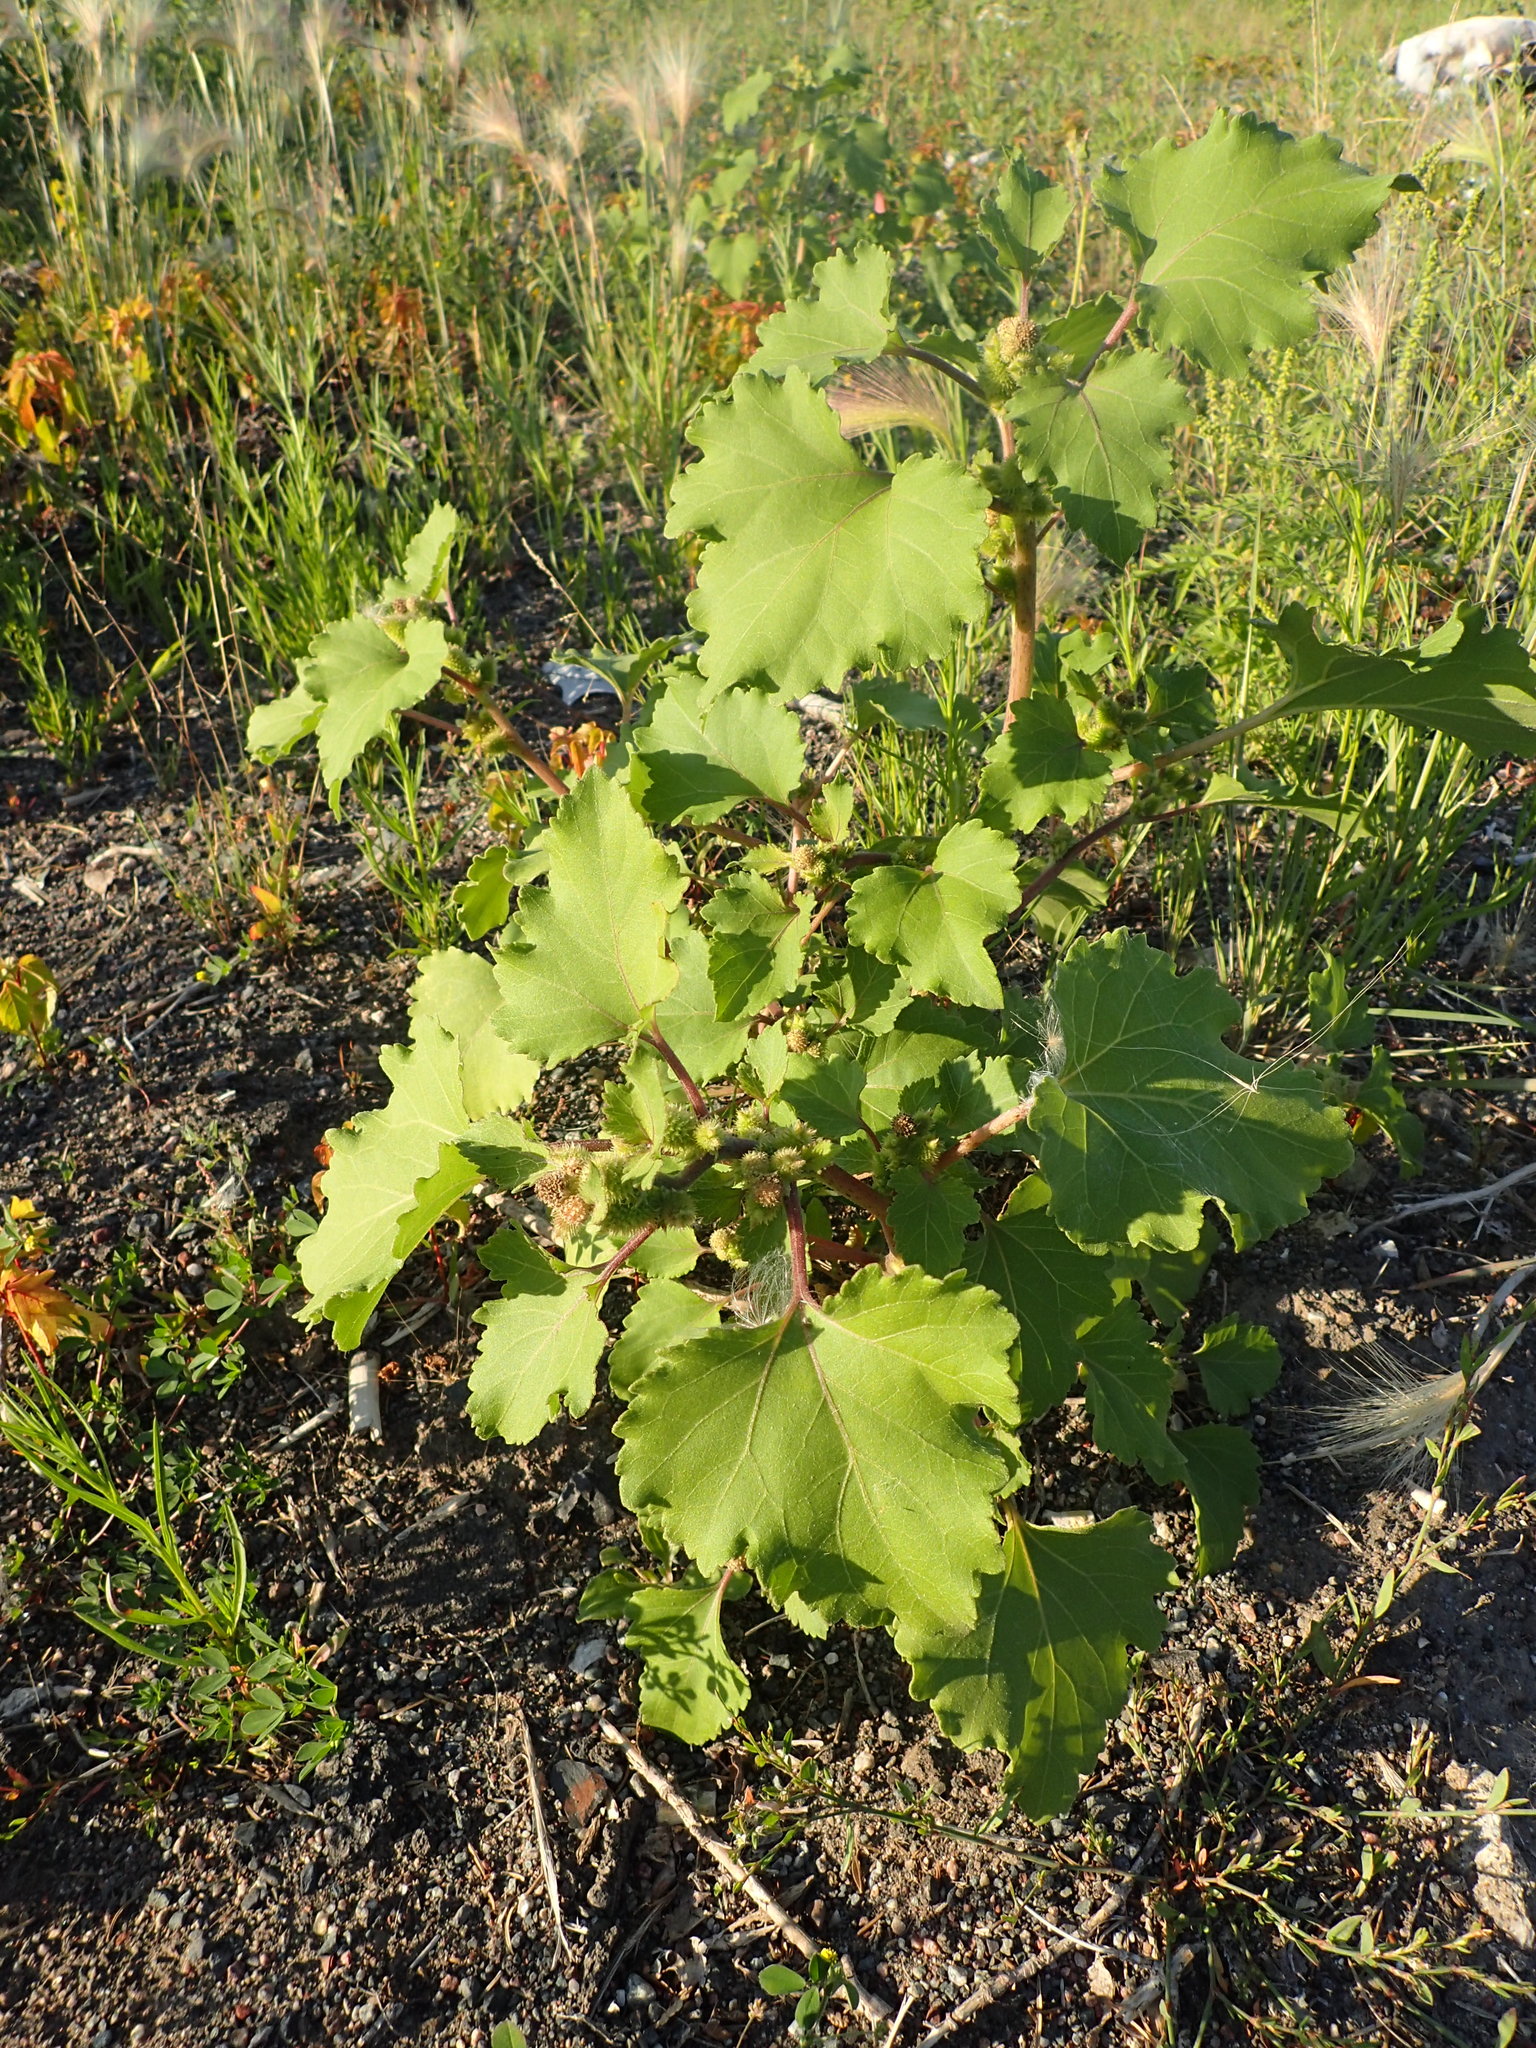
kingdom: Plantae
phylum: Tracheophyta
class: Magnoliopsida
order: Asterales
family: Asteraceae
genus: Xanthium
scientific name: Xanthium strumarium
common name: Rough cocklebur
